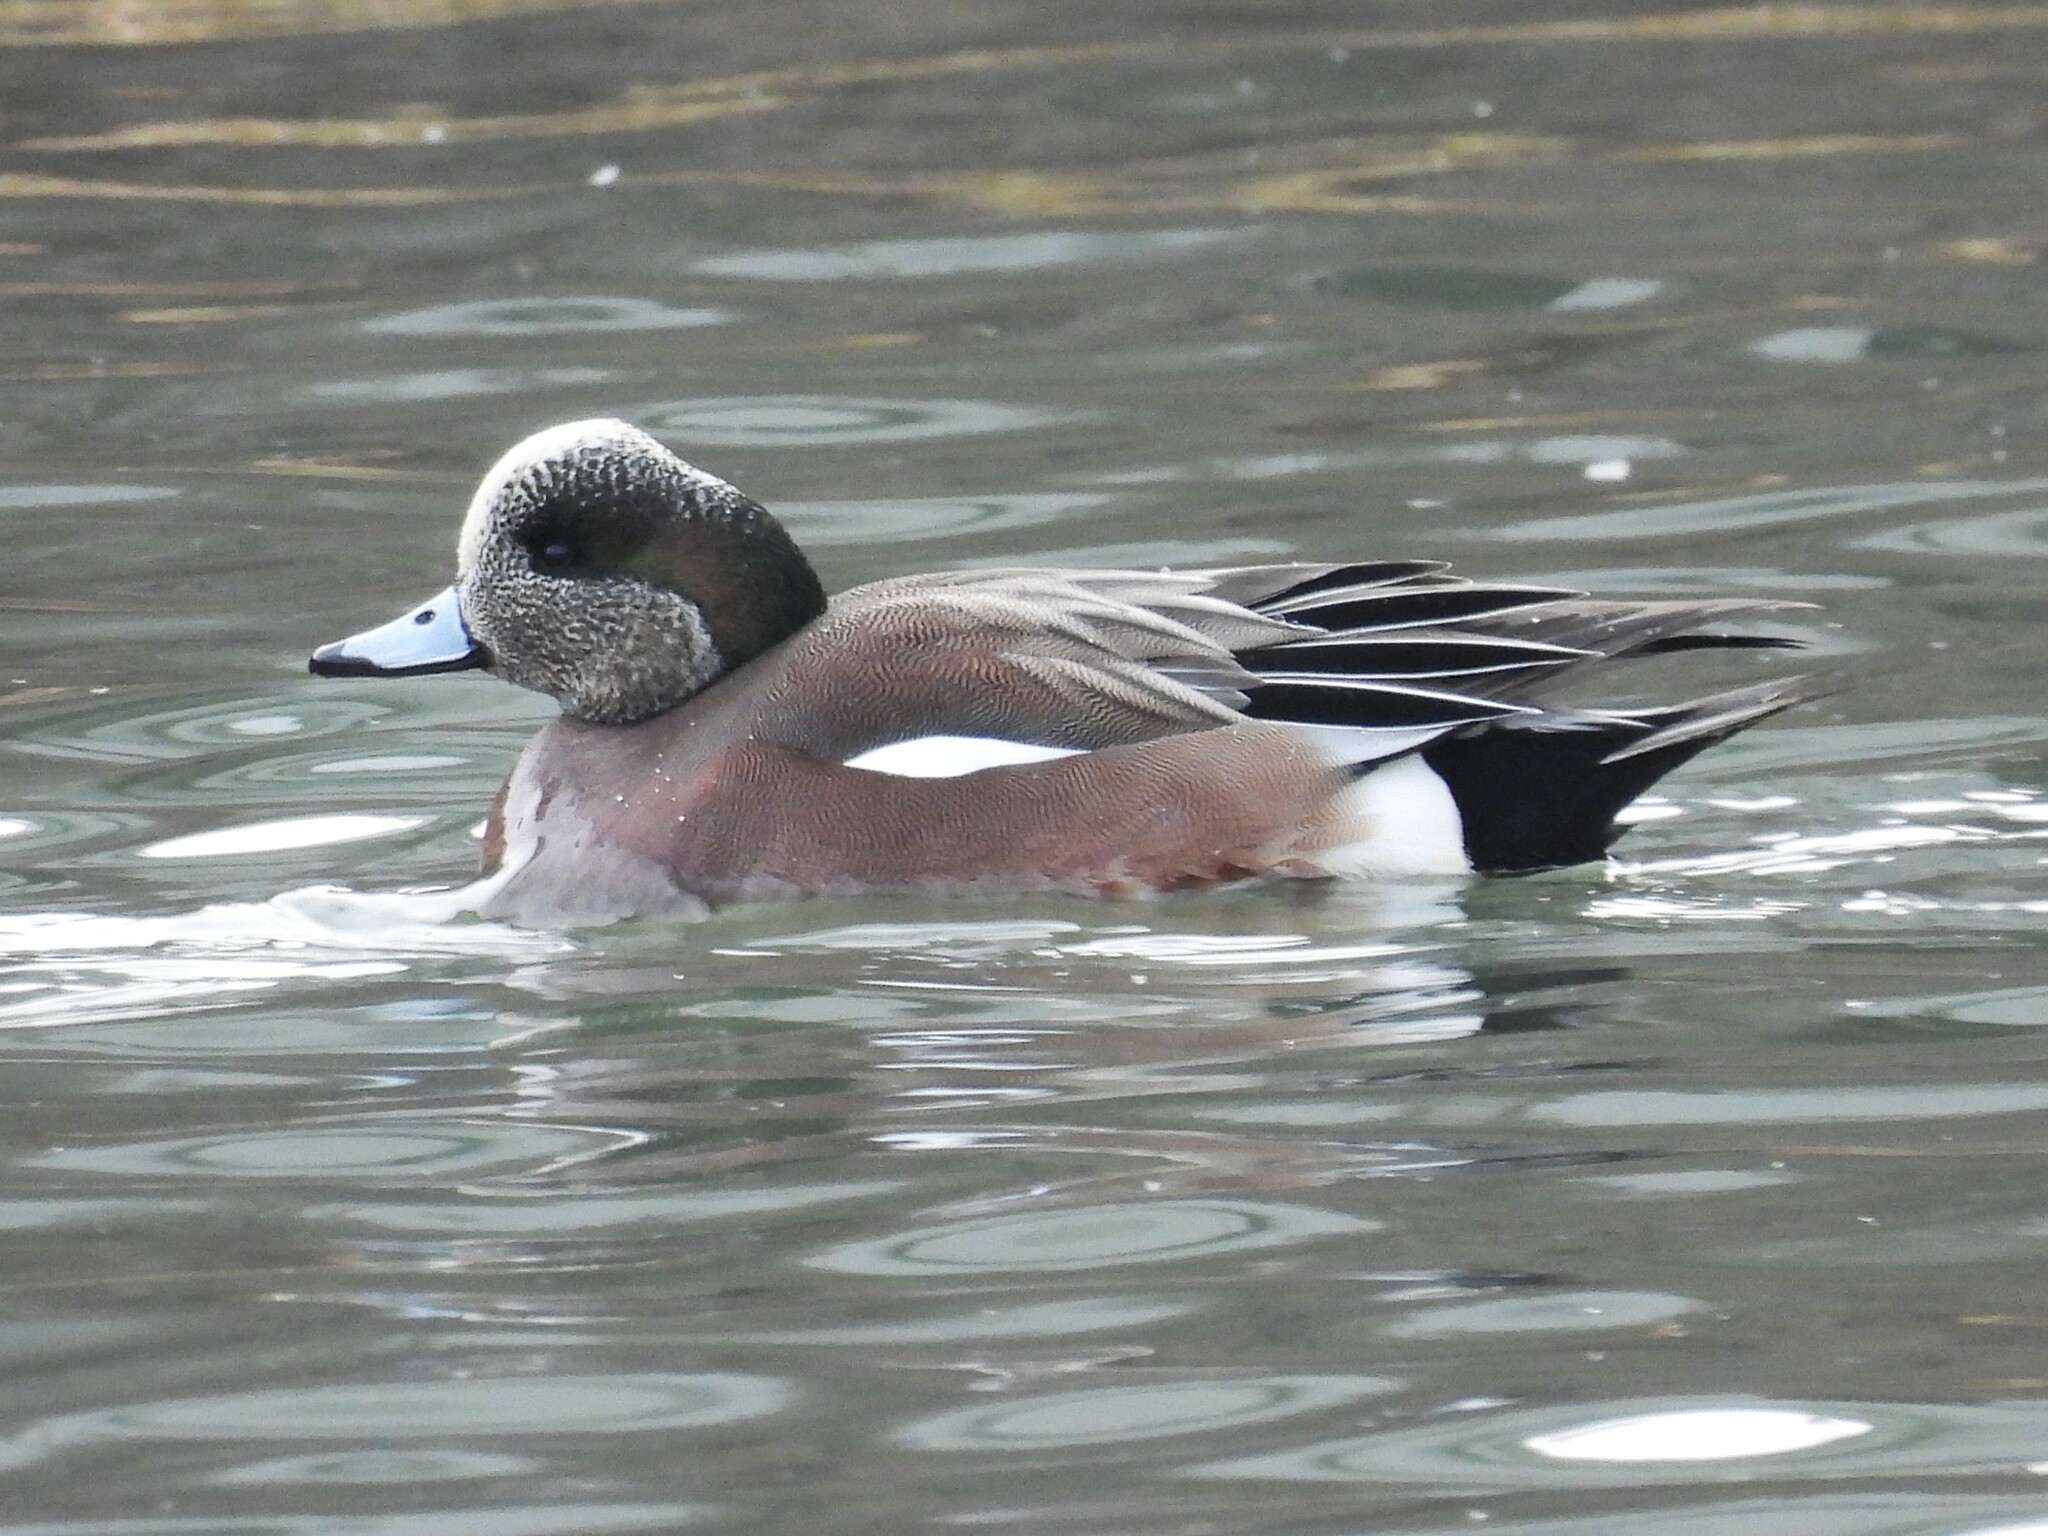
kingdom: Animalia
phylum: Chordata
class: Aves
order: Anseriformes
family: Anatidae
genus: Mareca
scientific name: Mareca americana
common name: American wigeon
